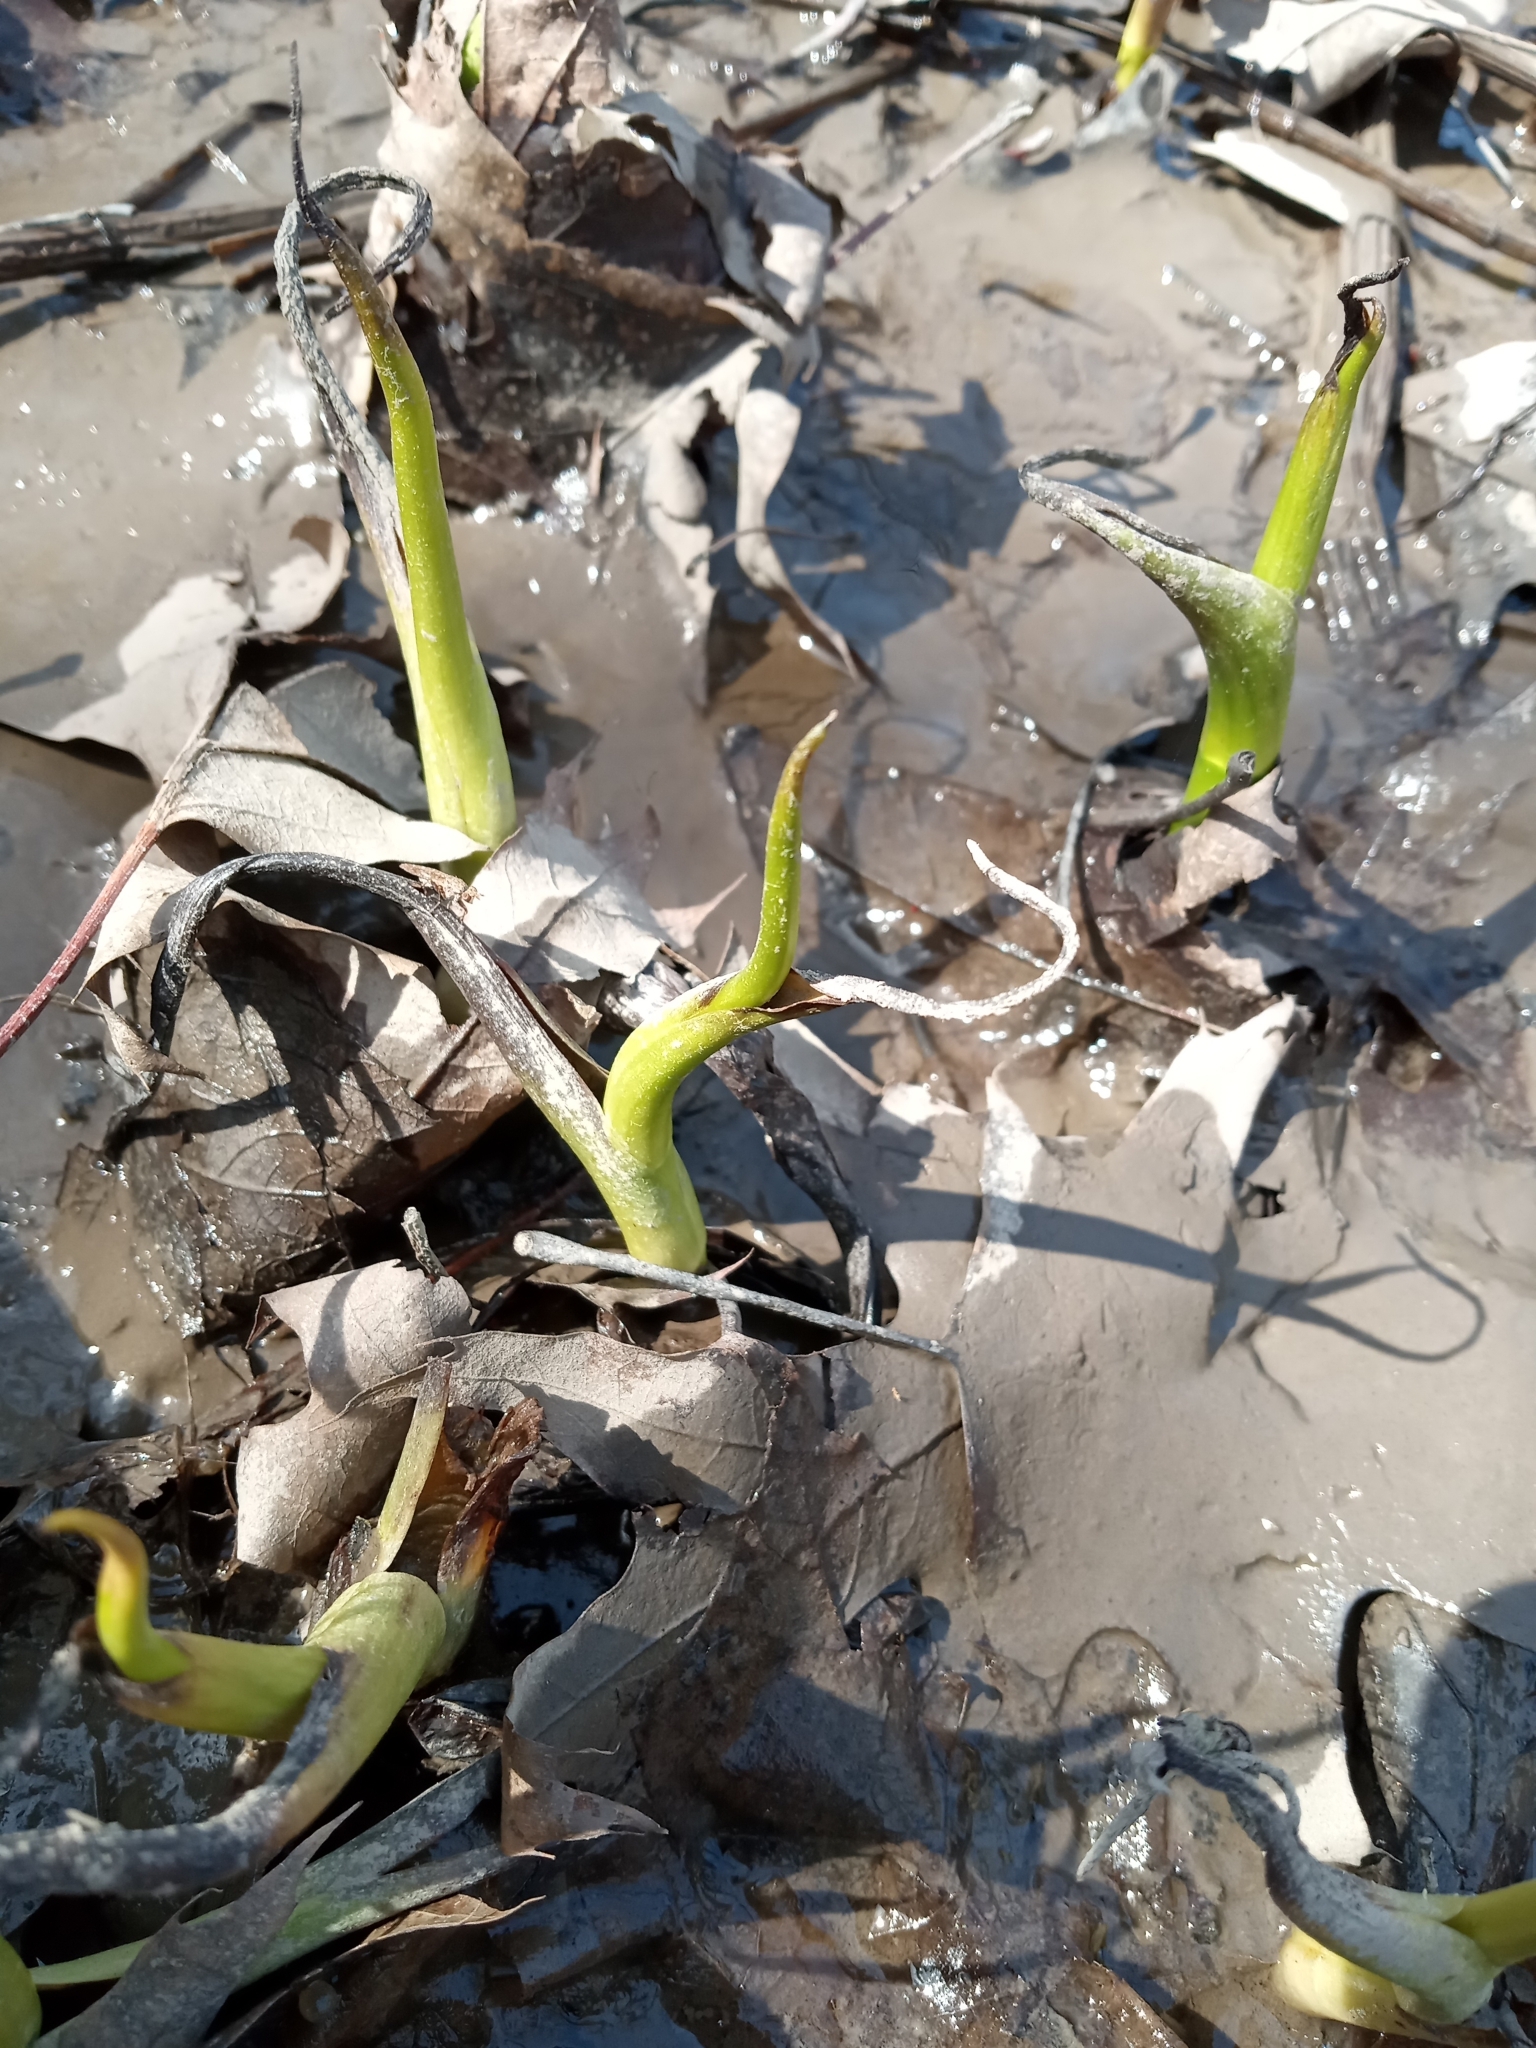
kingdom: Plantae
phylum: Tracheophyta
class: Magnoliopsida
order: Piperales
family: Saururaceae
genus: Saururus
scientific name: Saururus cernuus
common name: Lizard's-tail
